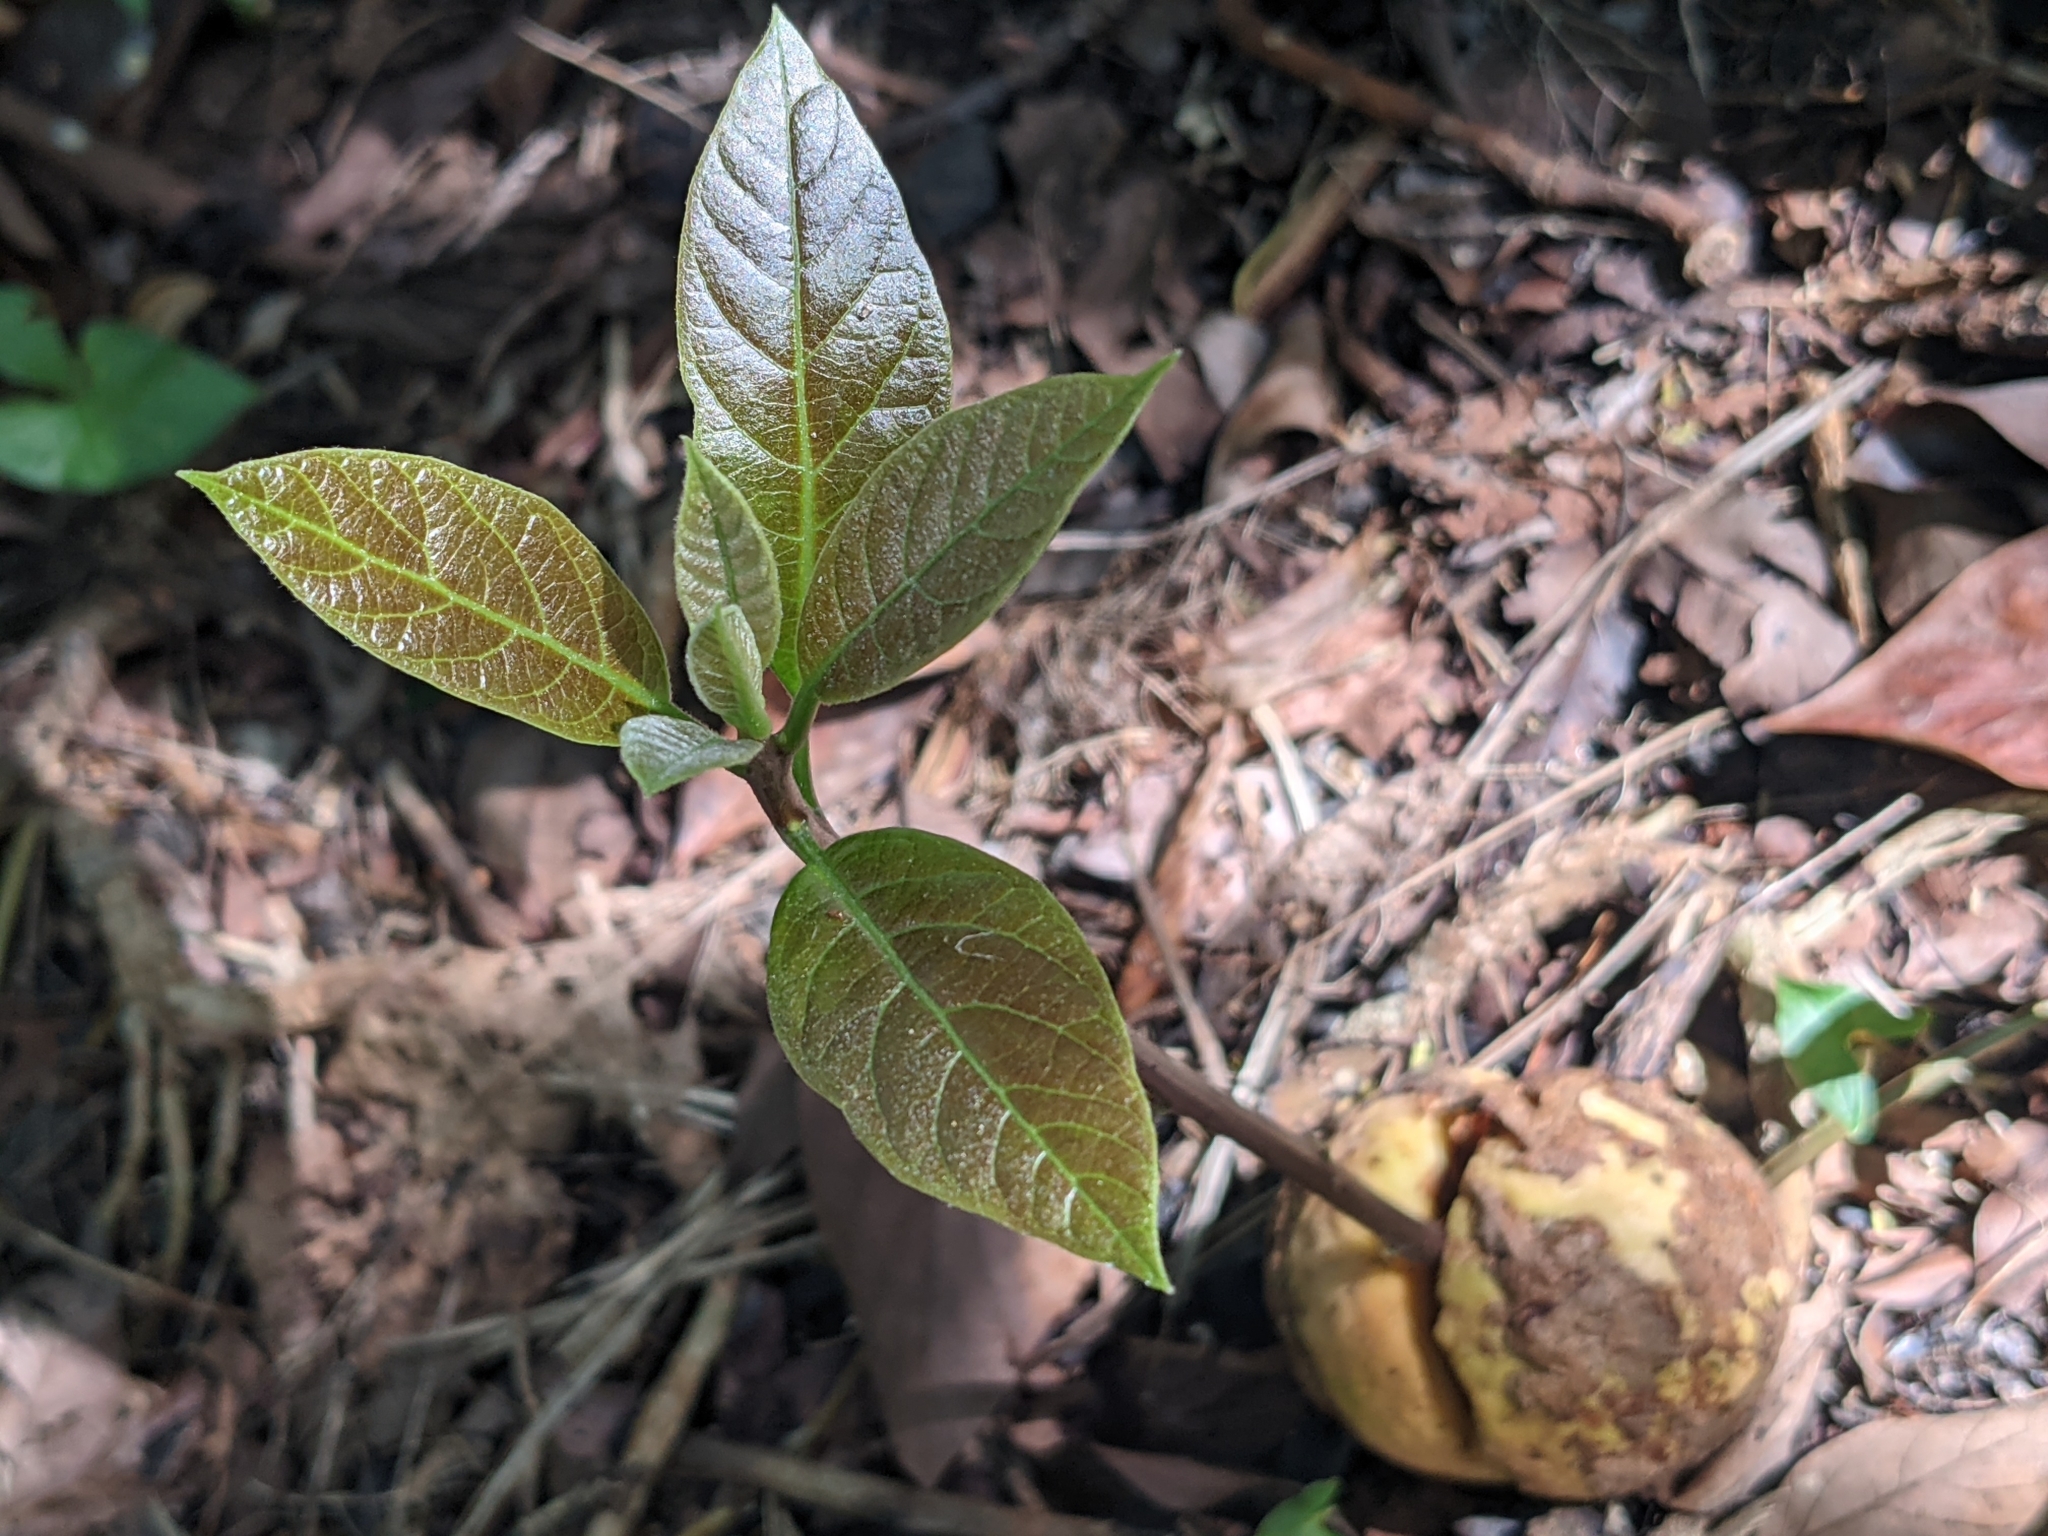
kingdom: Plantae
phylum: Tracheophyta
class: Magnoliopsida
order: Laurales
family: Lauraceae
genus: Persea
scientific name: Persea americana
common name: Avocado
